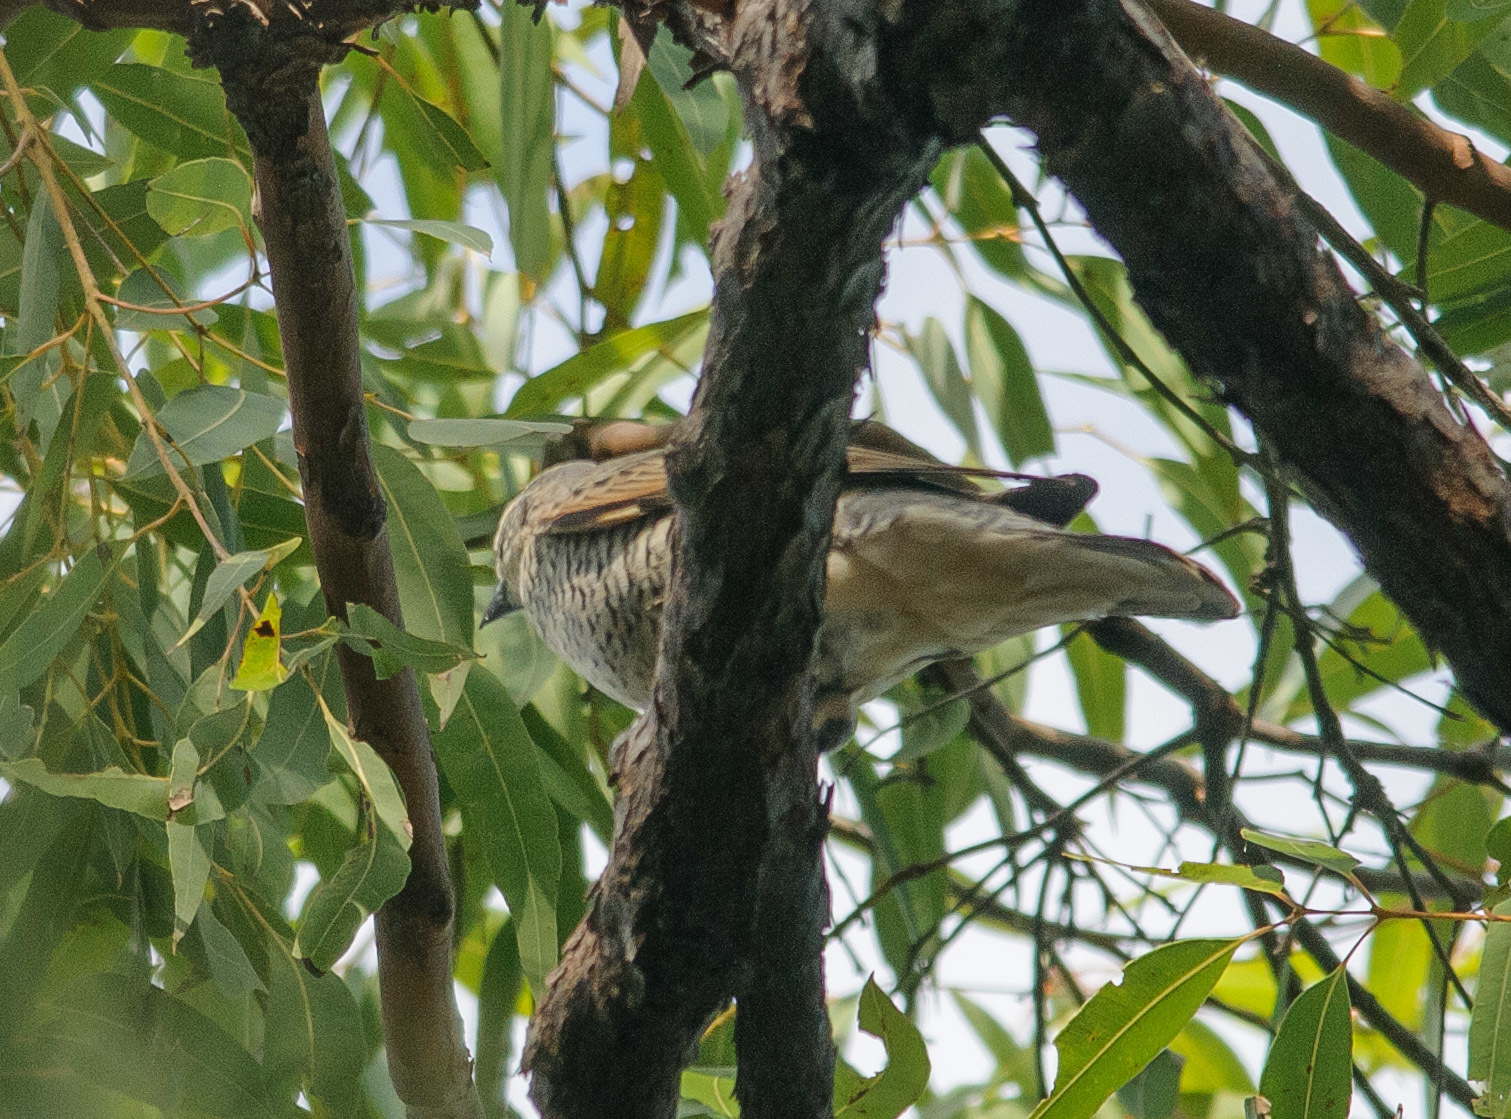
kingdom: Animalia
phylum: Chordata
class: Aves
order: Passeriformes
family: Campephagidae
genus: Edolisoma
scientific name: Edolisoma tenuirostre
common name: Common cicadabird
